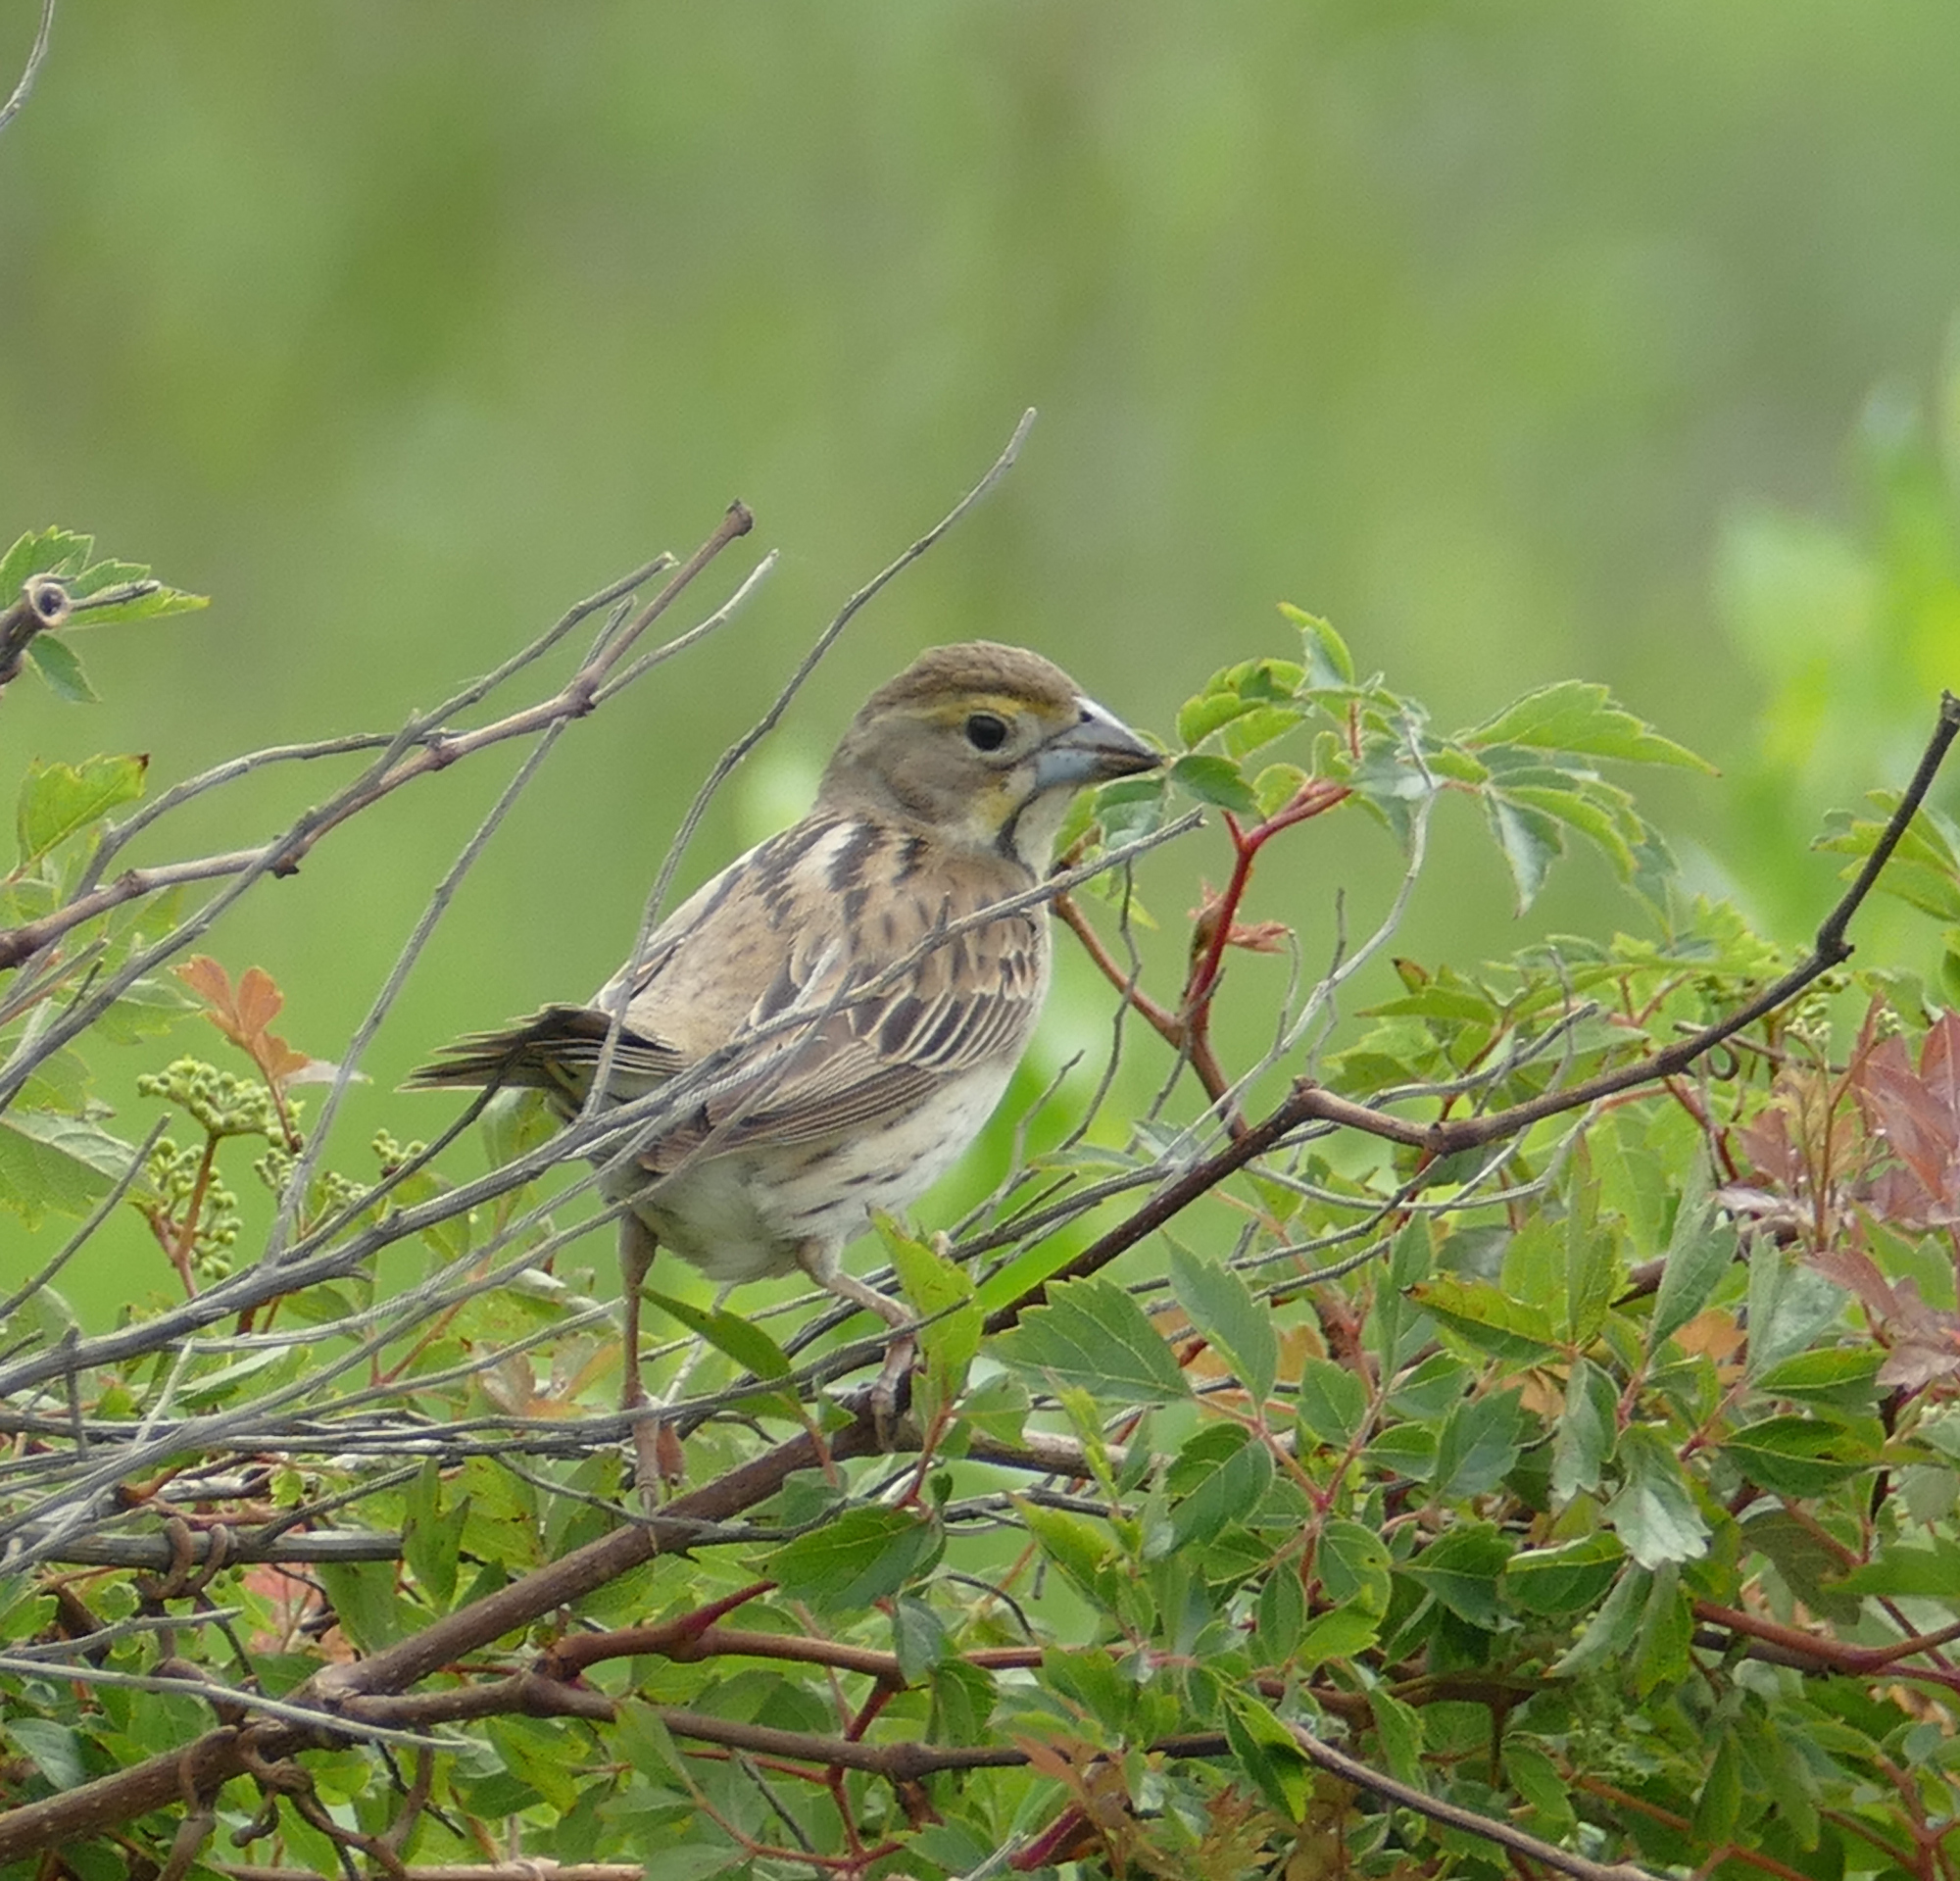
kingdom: Animalia
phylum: Chordata
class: Aves
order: Passeriformes
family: Cardinalidae
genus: Spiza
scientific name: Spiza americana
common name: Dickcissel
